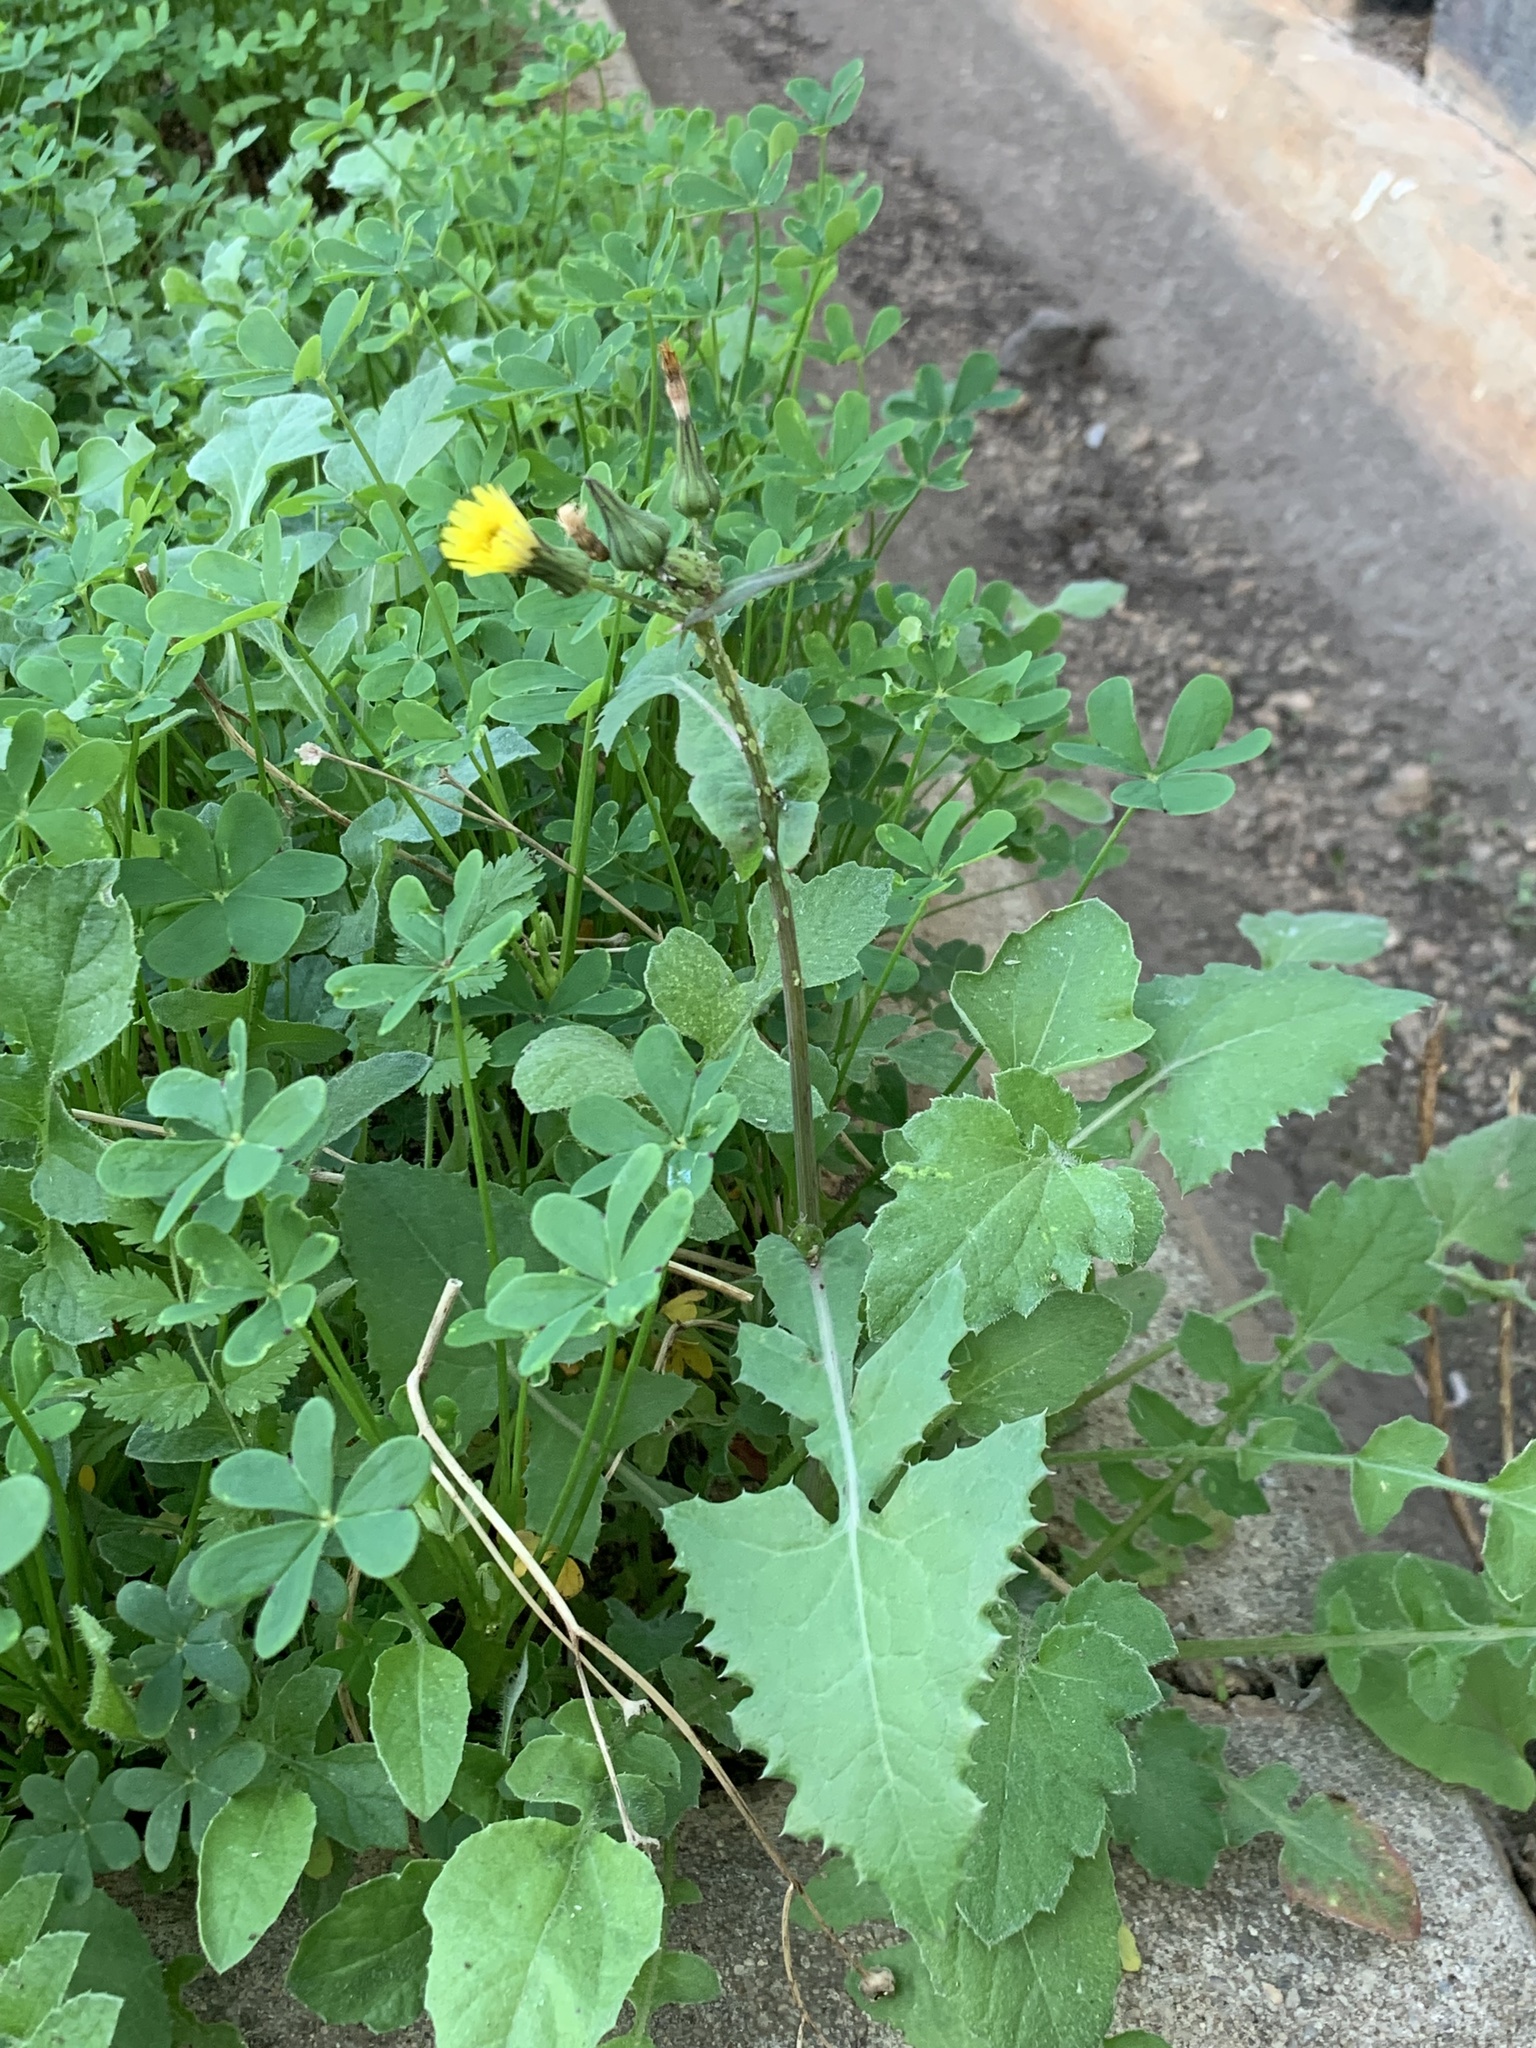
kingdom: Plantae
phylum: Tracheophyta
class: Magnoliopsida
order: Asterales
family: Asteraceae
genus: Sonchus
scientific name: Sonchus oleraceus
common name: Common sowthistle
